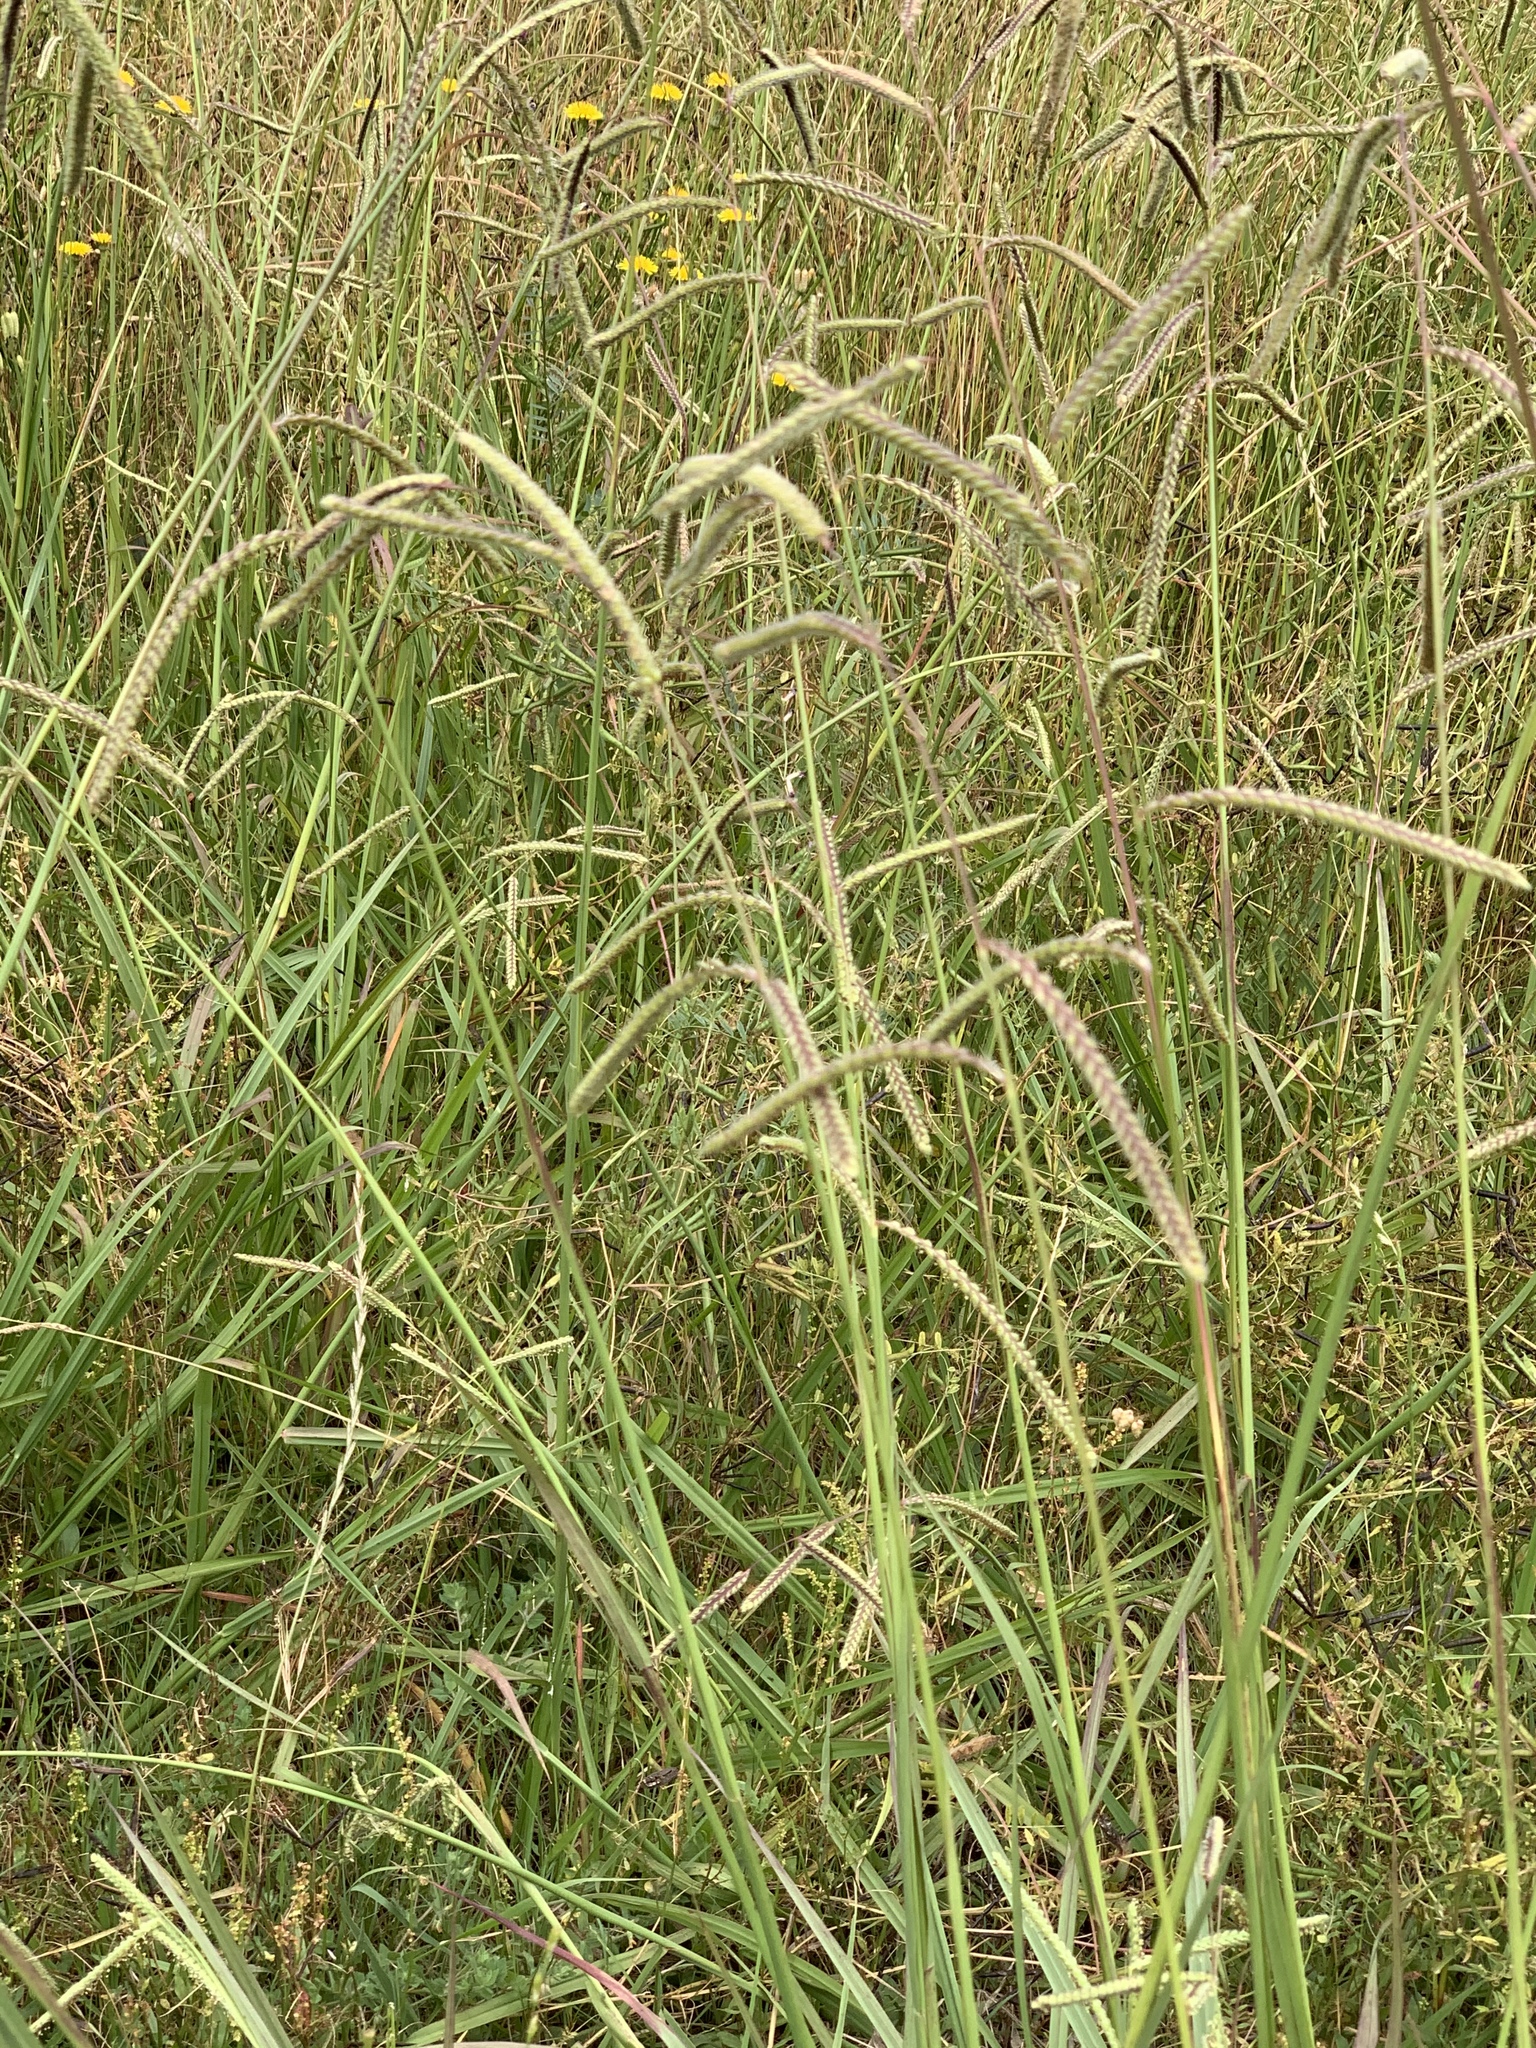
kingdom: Plantae
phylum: Tracheophyta
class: Liliopsida
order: Poales
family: Poaceae
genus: Paspalum
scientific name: Paspalum dilatatum
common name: Dallisgrass
